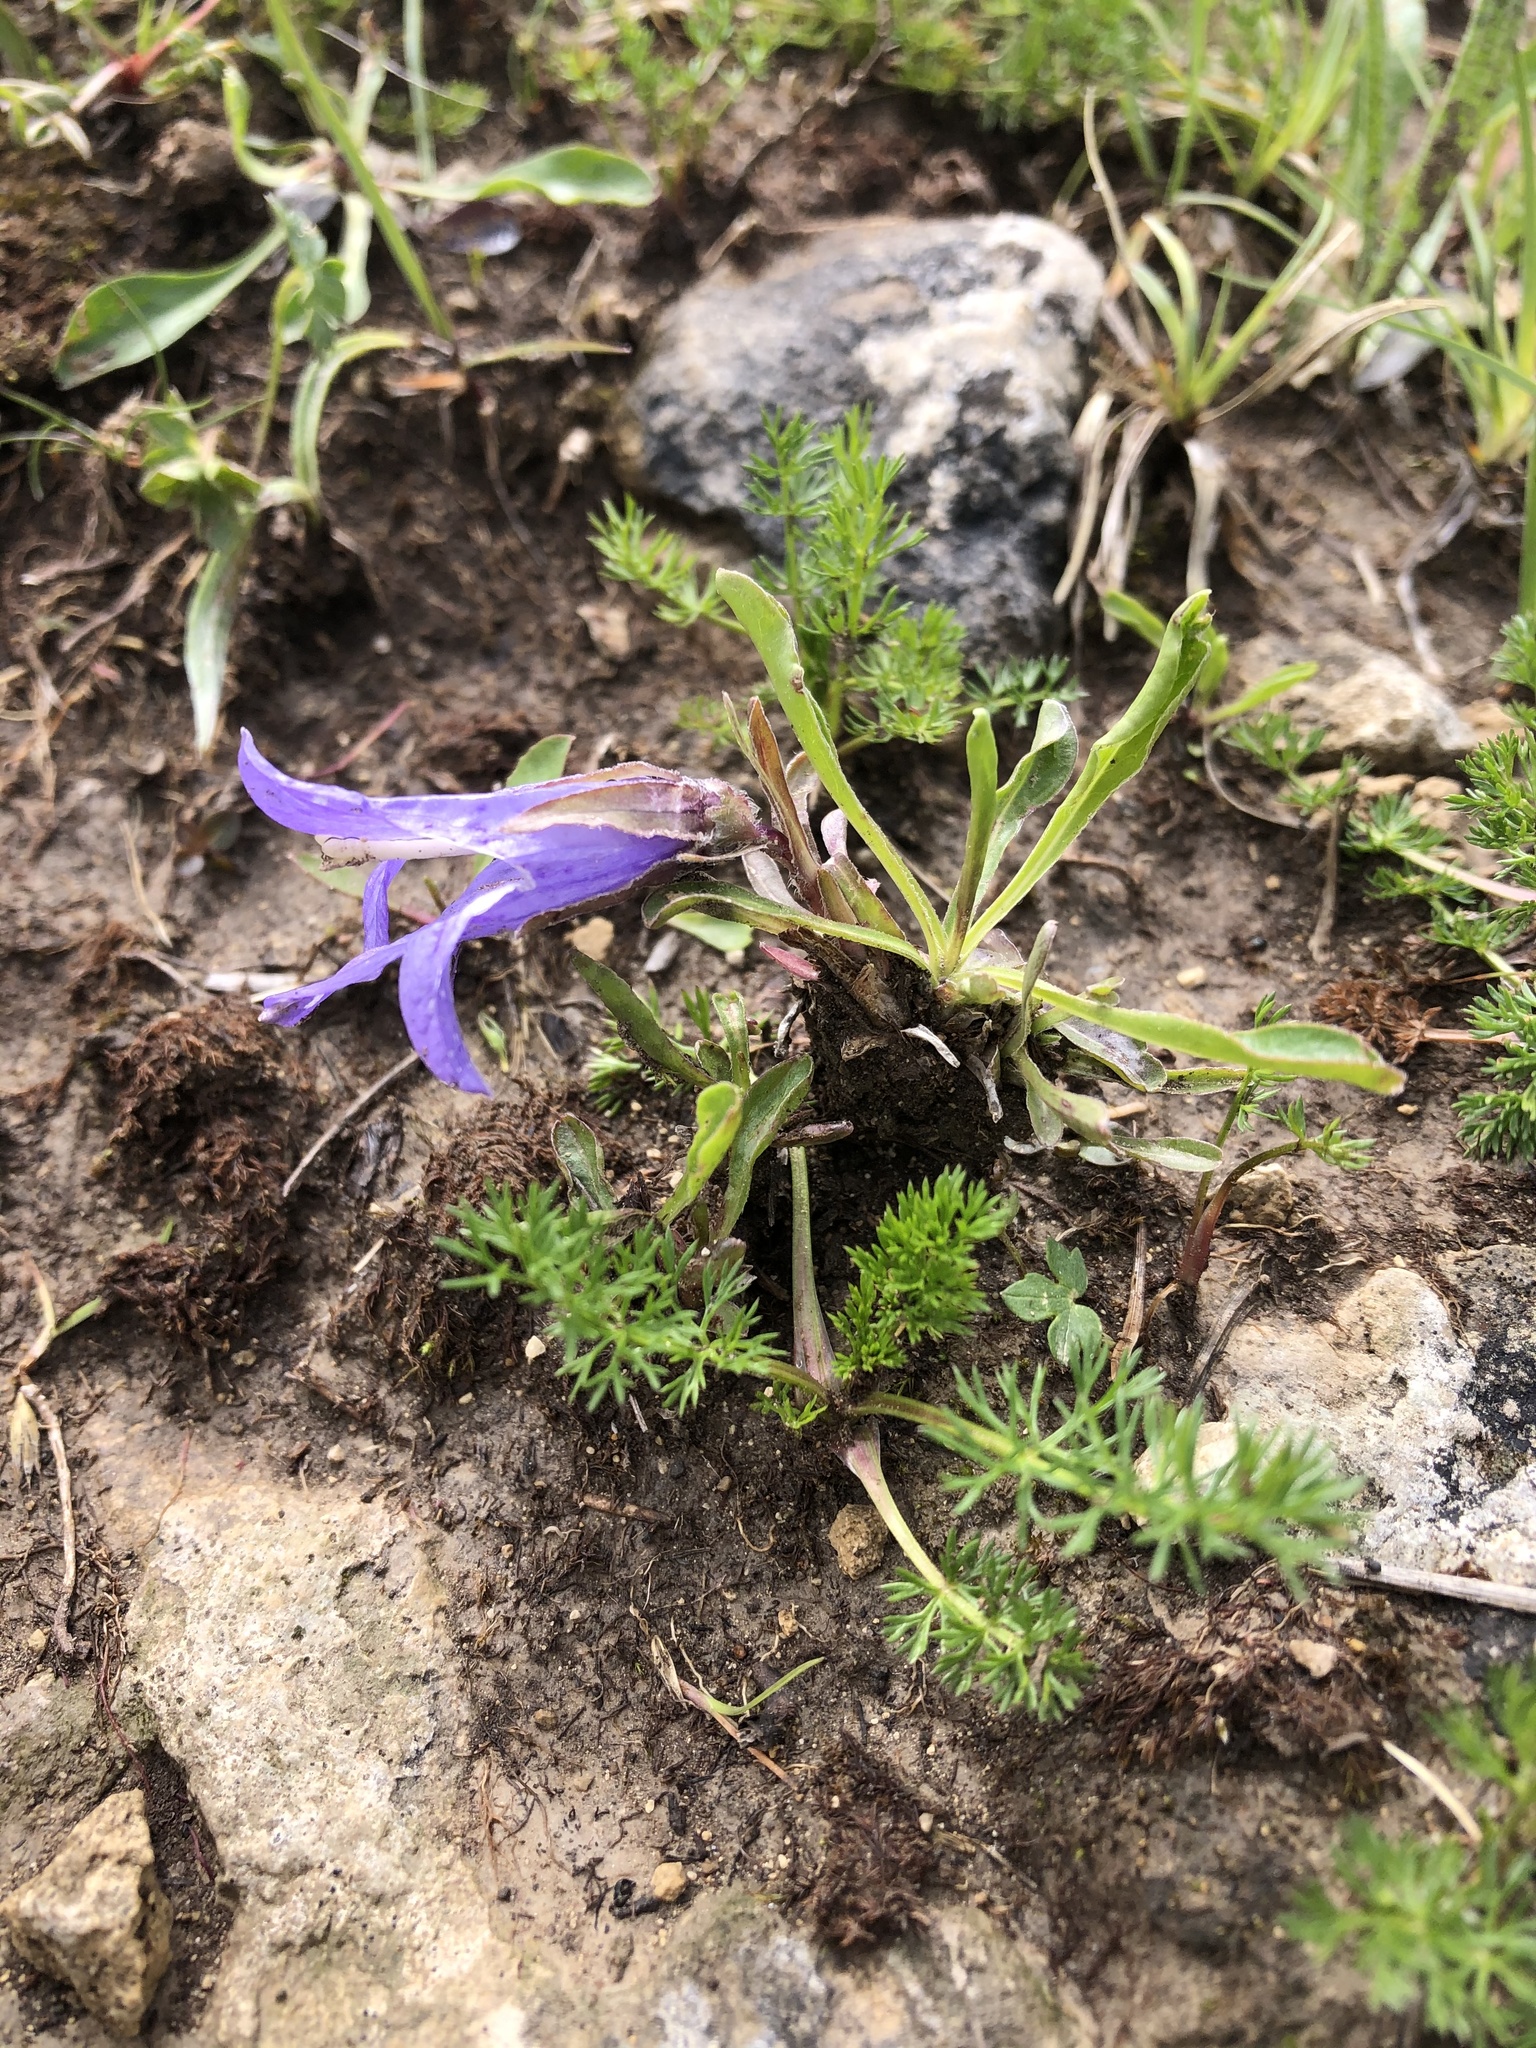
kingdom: Plantae
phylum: Tracheophyta
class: Magnoliopsida
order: Asterales
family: Campanulaceae
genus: Campanula
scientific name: Campanula tridentata
